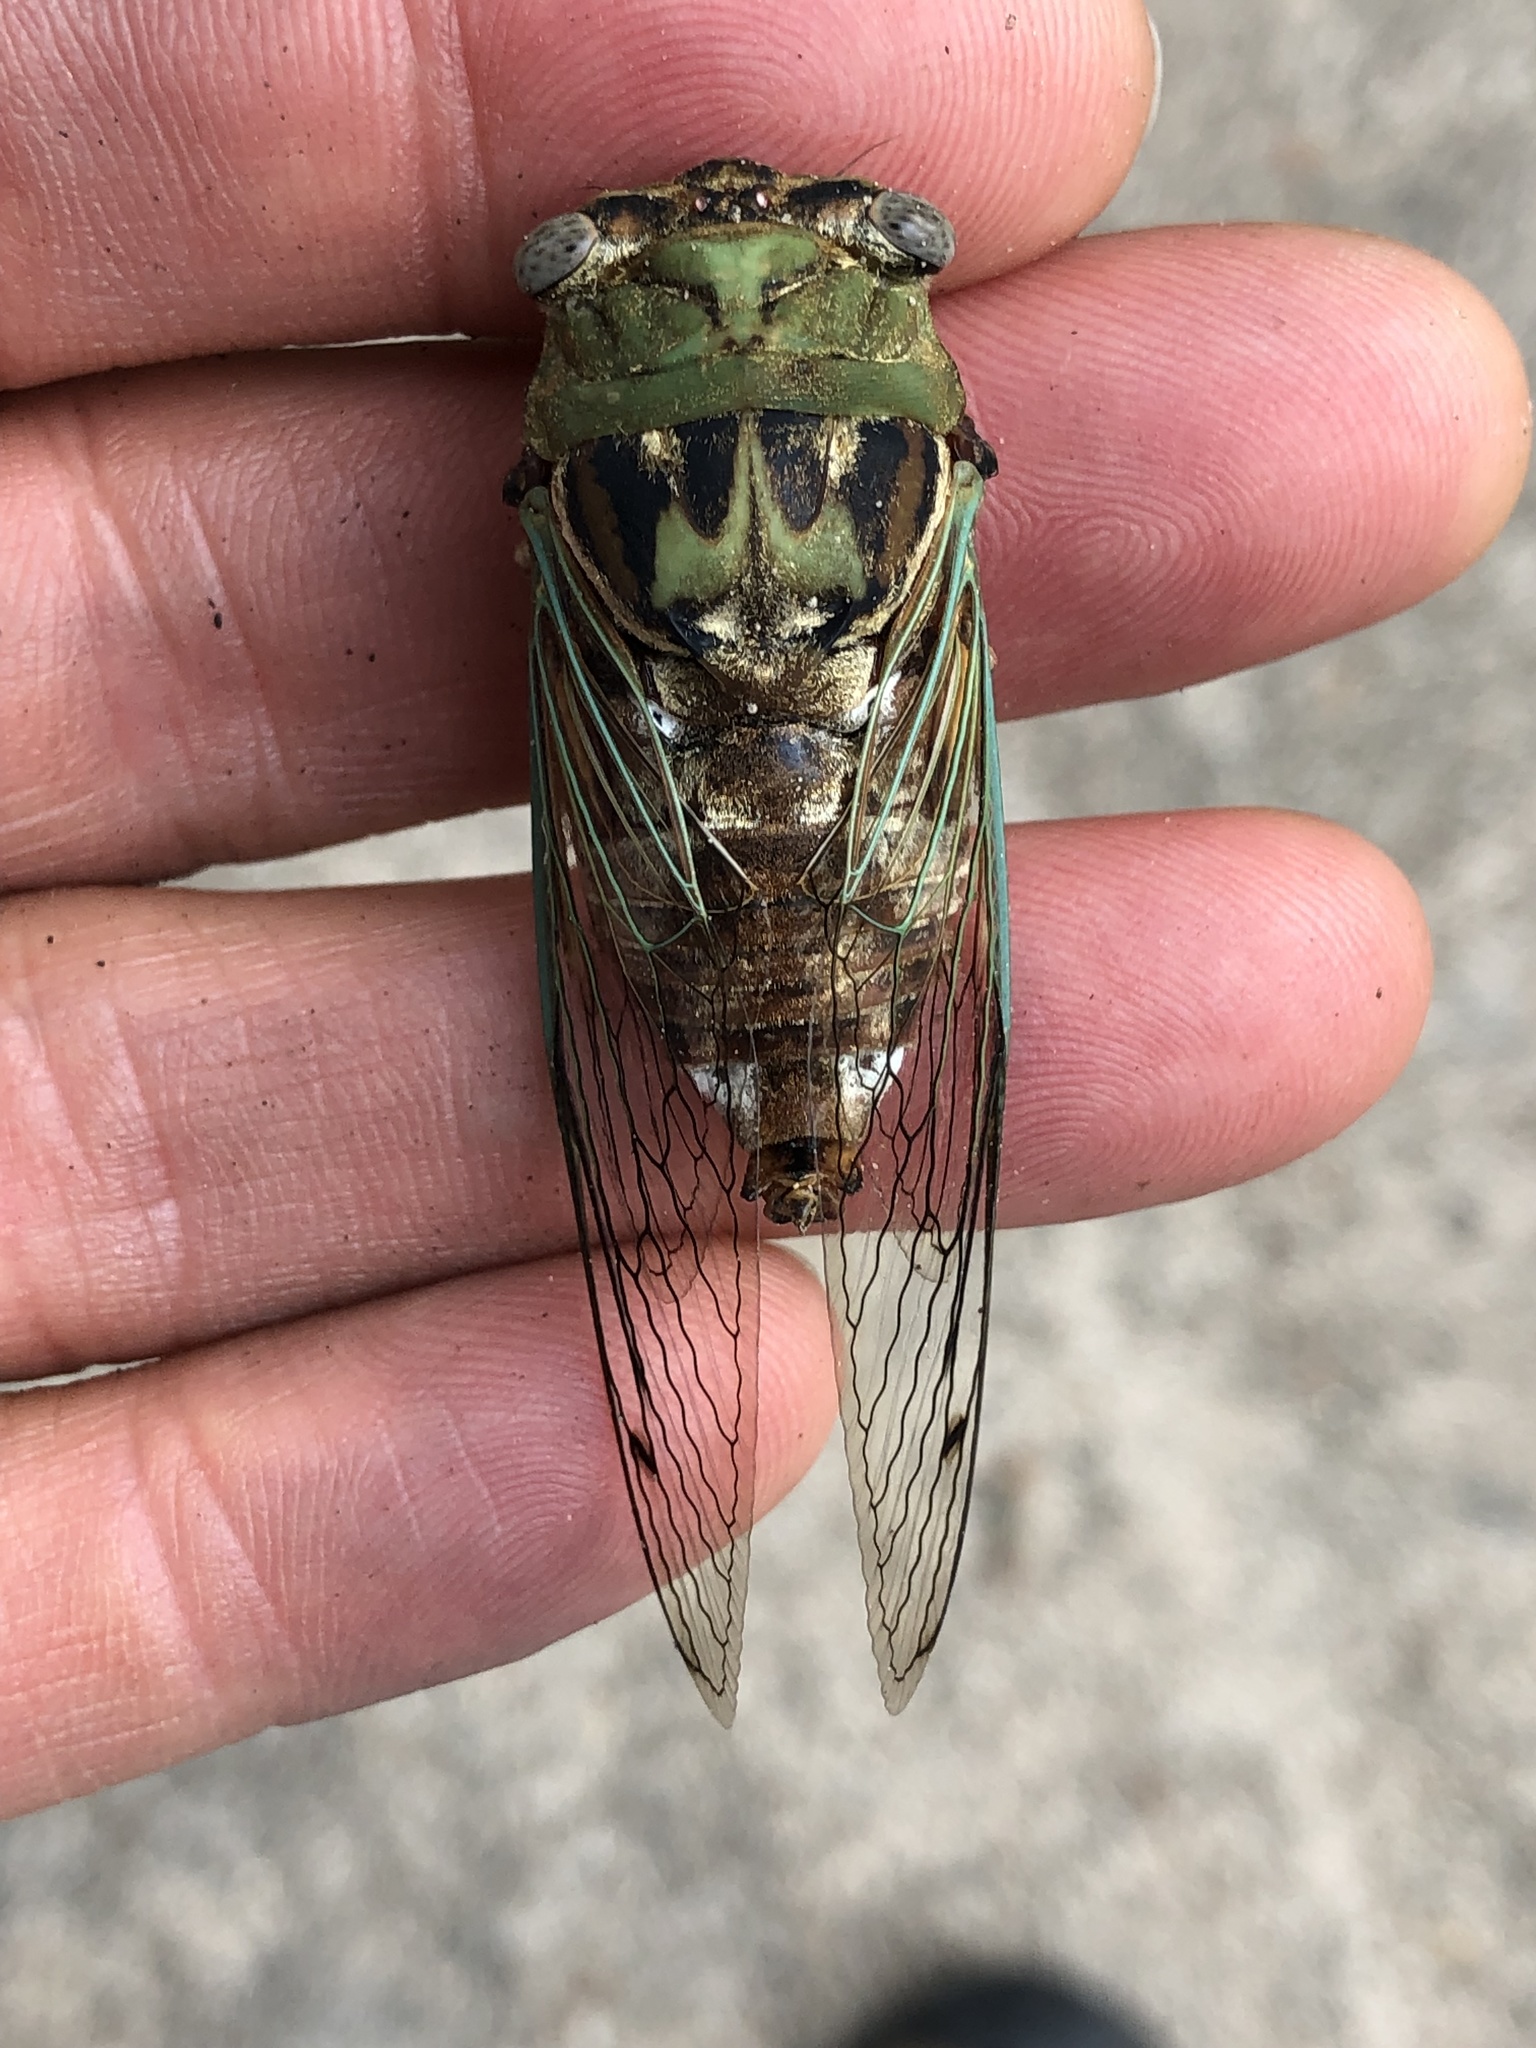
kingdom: Animalia
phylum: Arthropoda
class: Insecta
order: Hemiptera
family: Cicadidae
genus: Megatibicen
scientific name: Megatibicen resh
